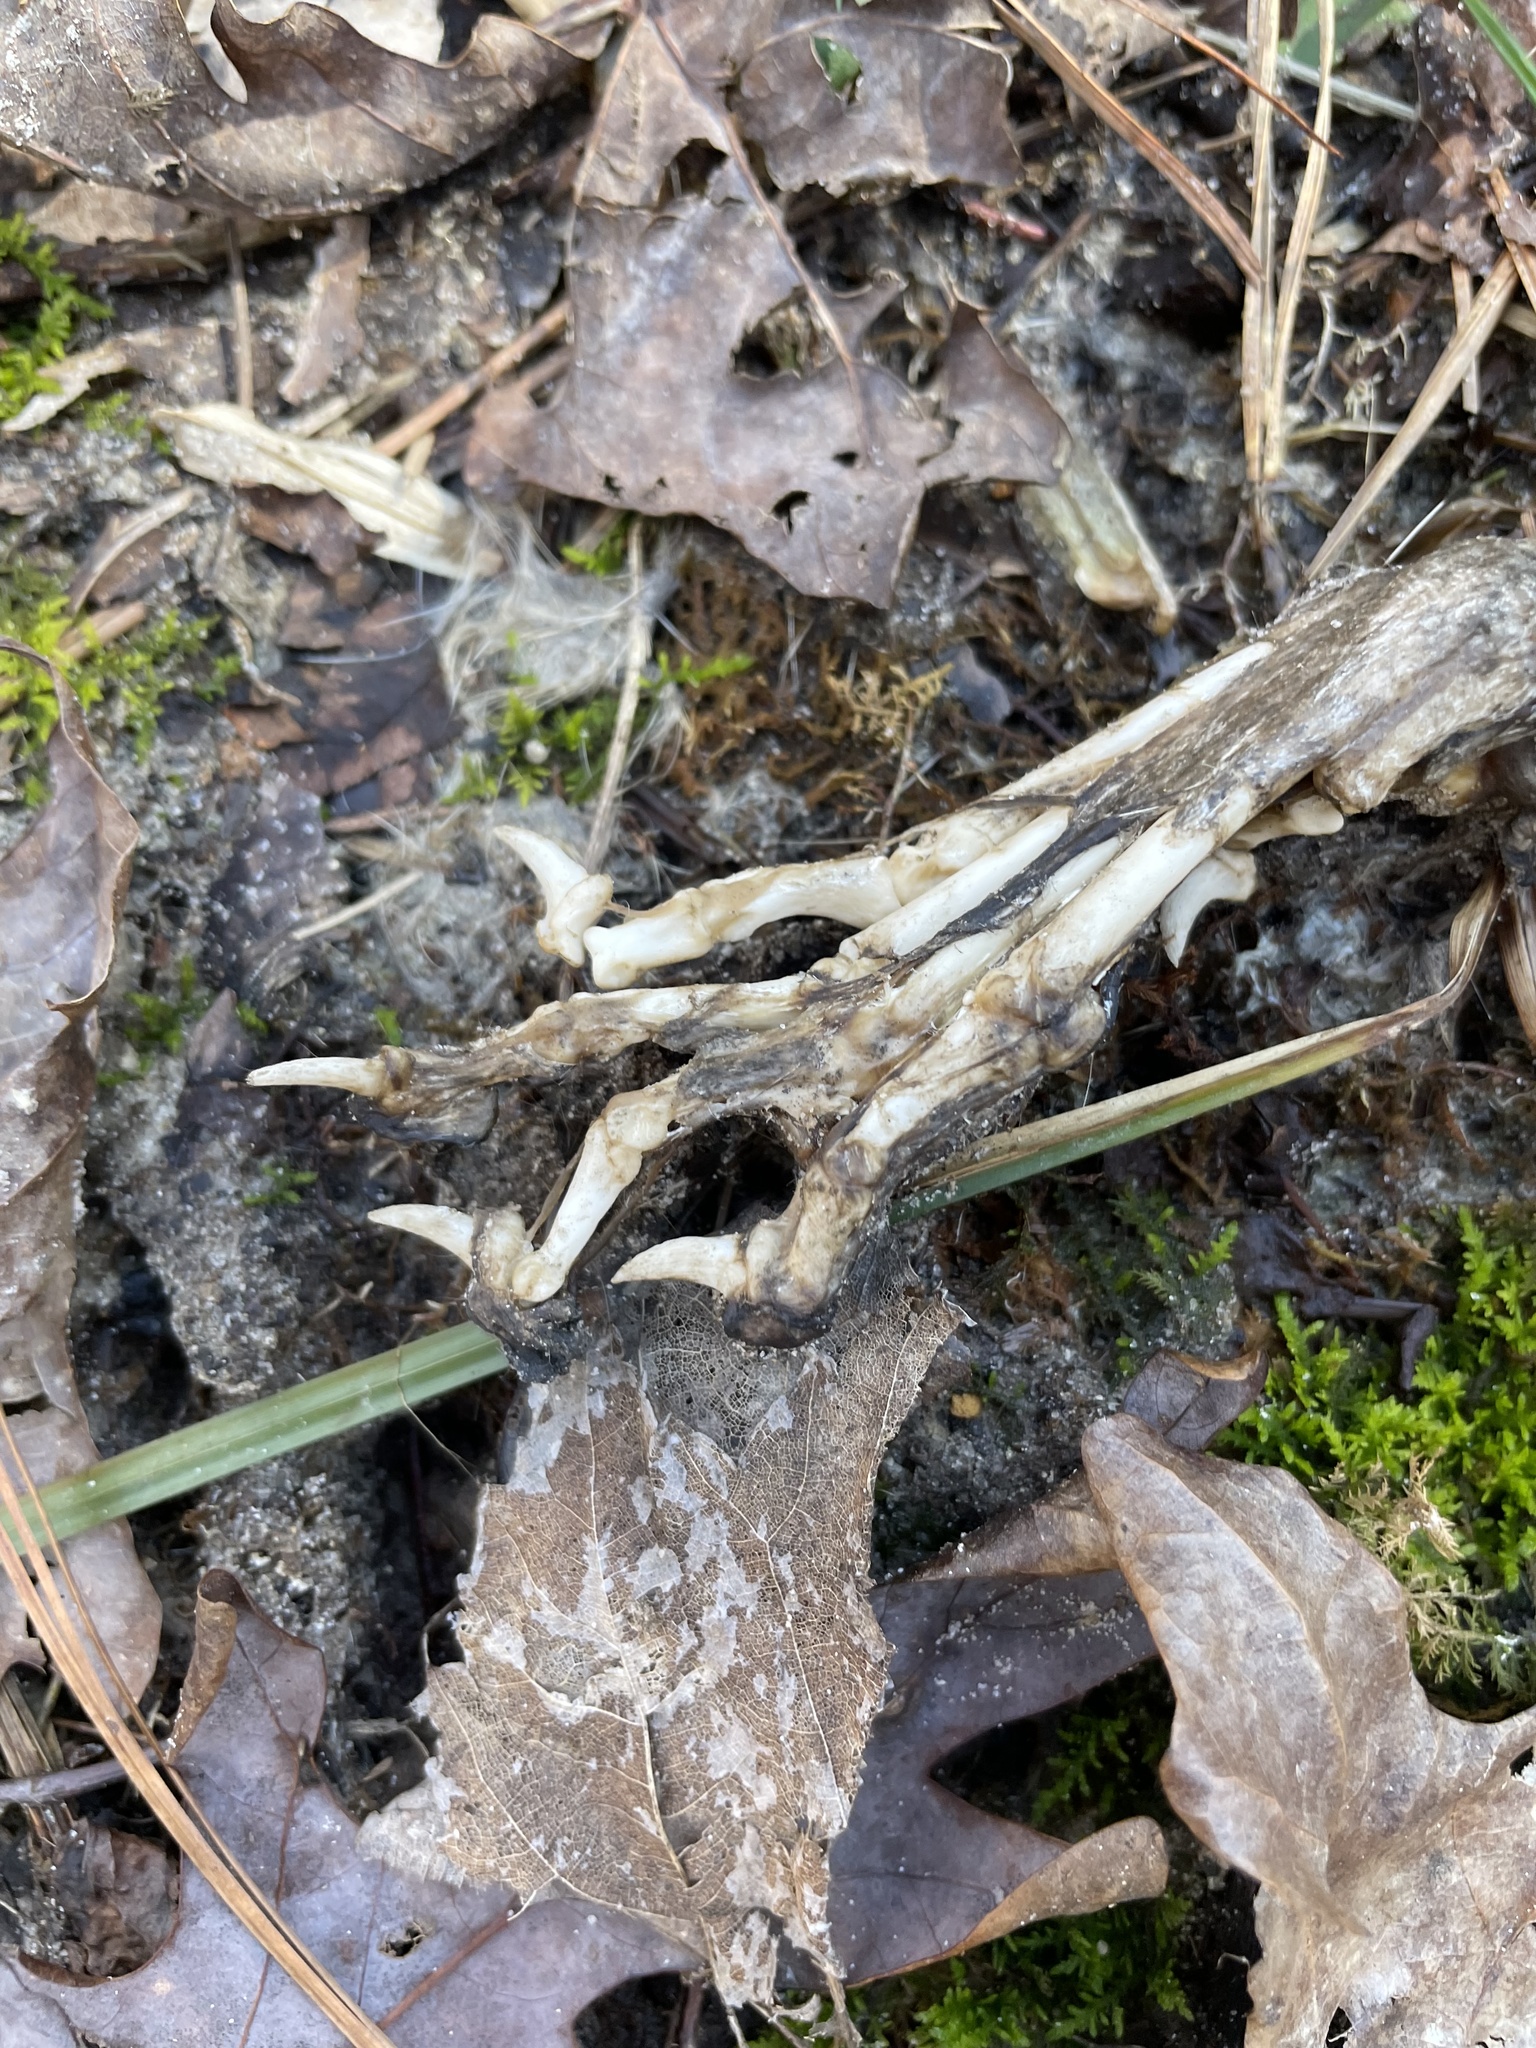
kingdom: Animalia
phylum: Chordata
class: Mammalia
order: Carnivora
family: Canidae
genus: Urocyon
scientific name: Urocyon cinereoargenteus
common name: Gray fox
